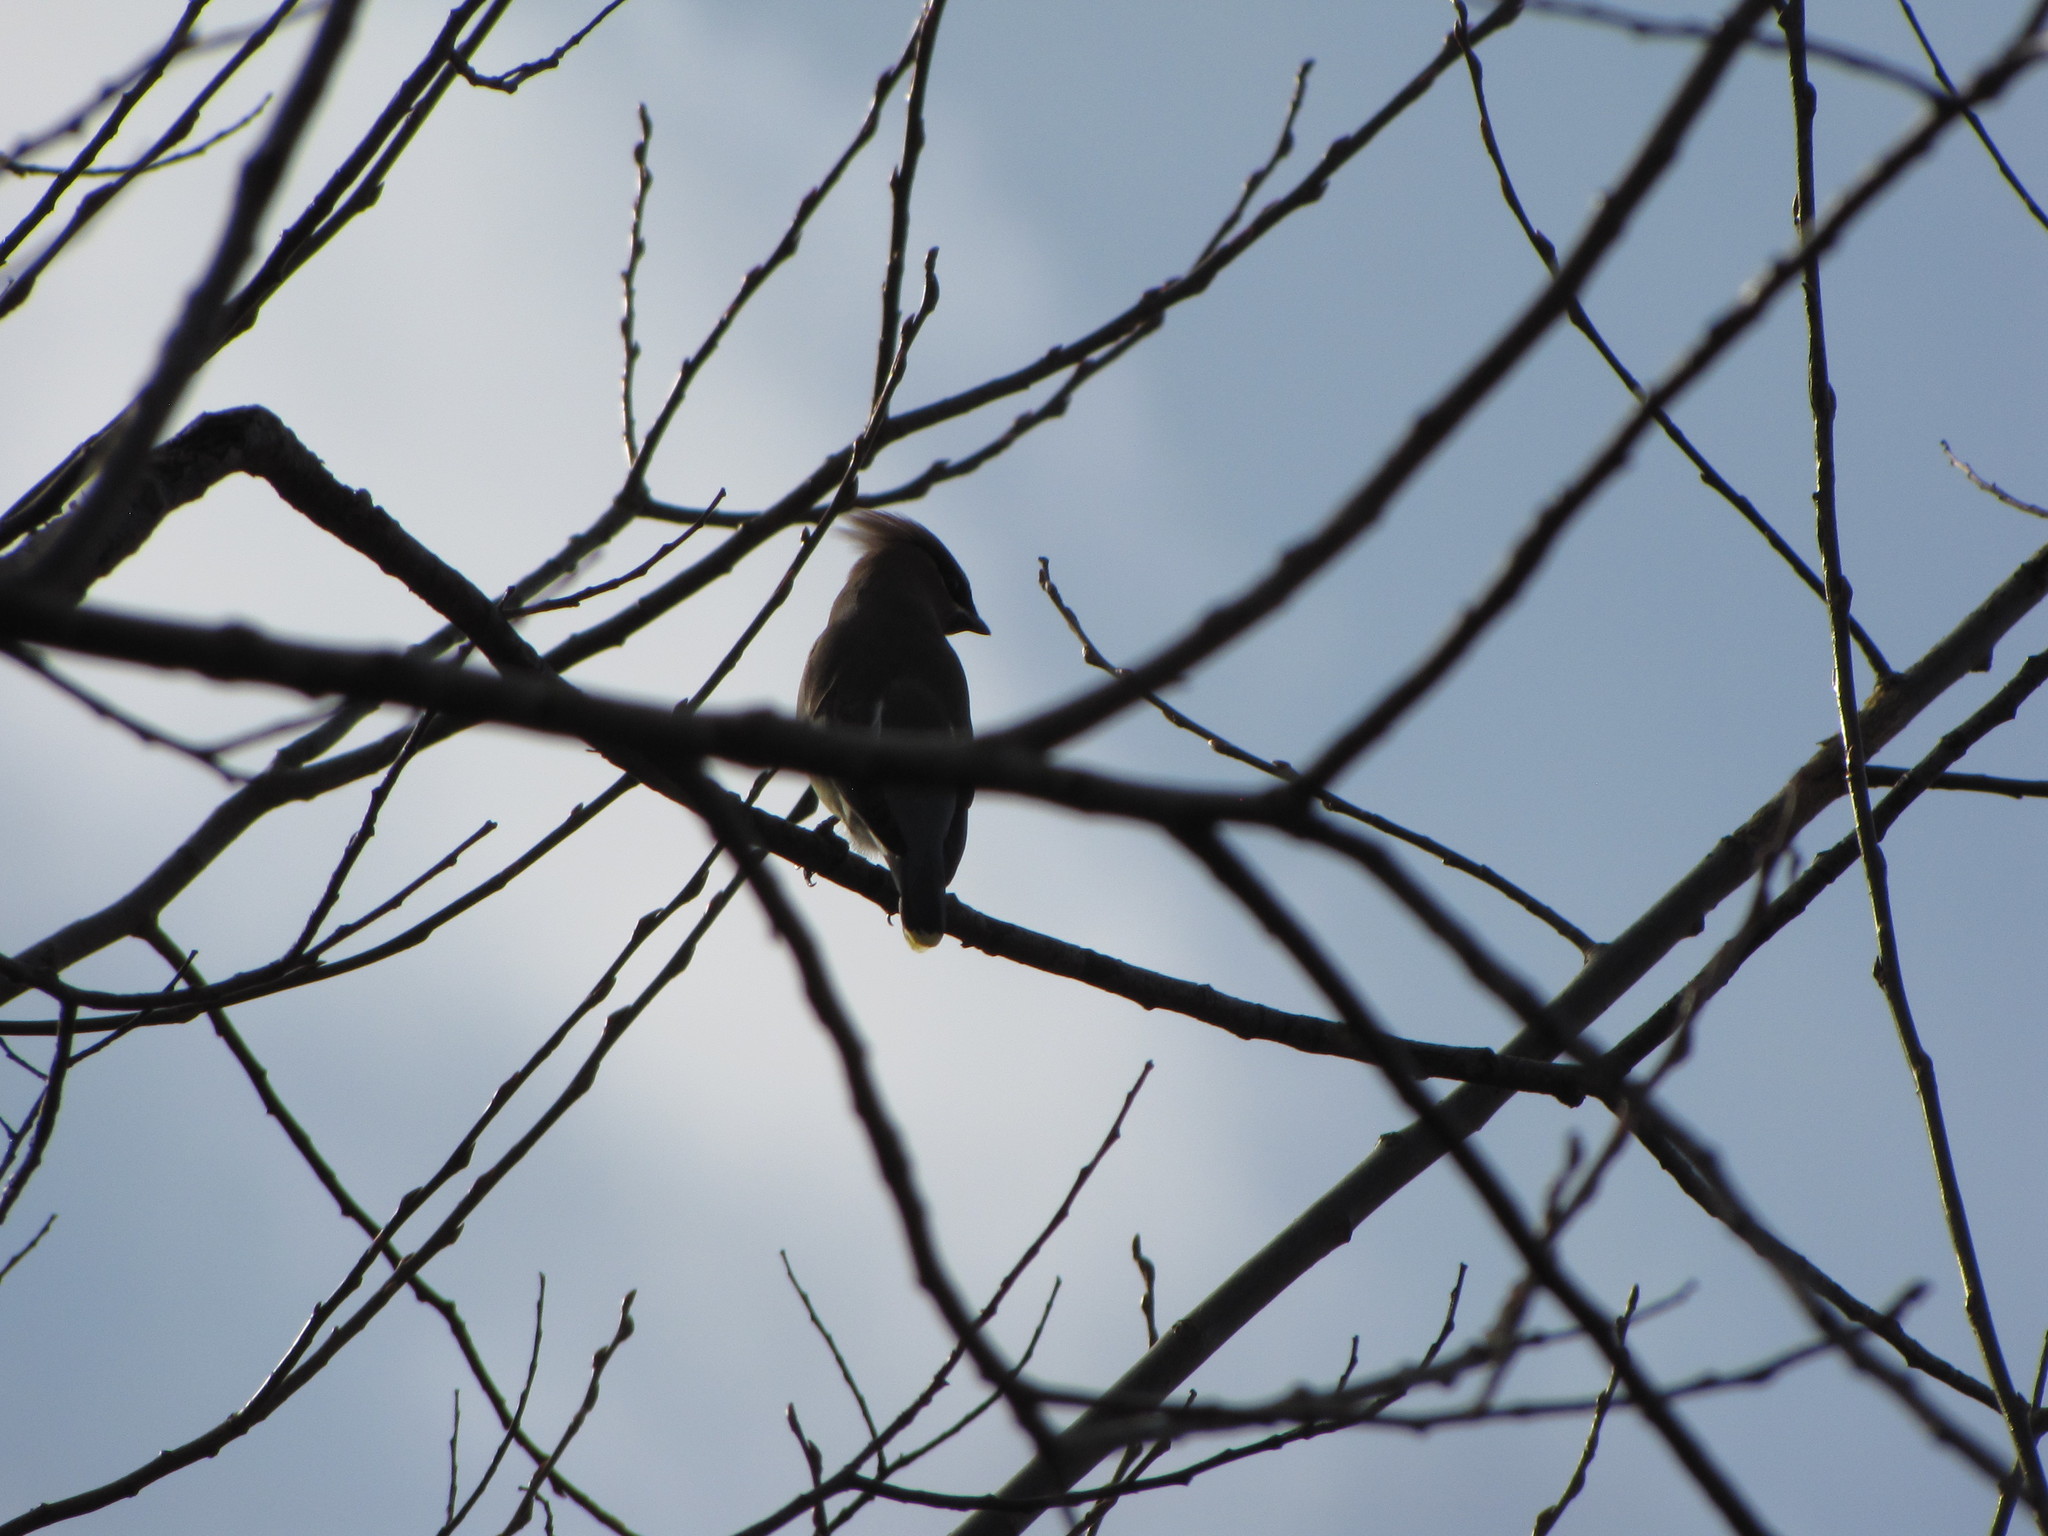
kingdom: Animalia
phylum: Chordata
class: Aves
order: Passeriformes
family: Bombycillidae
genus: Bombycilla
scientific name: Bombycilla cedrorum
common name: Cedar waxwing
